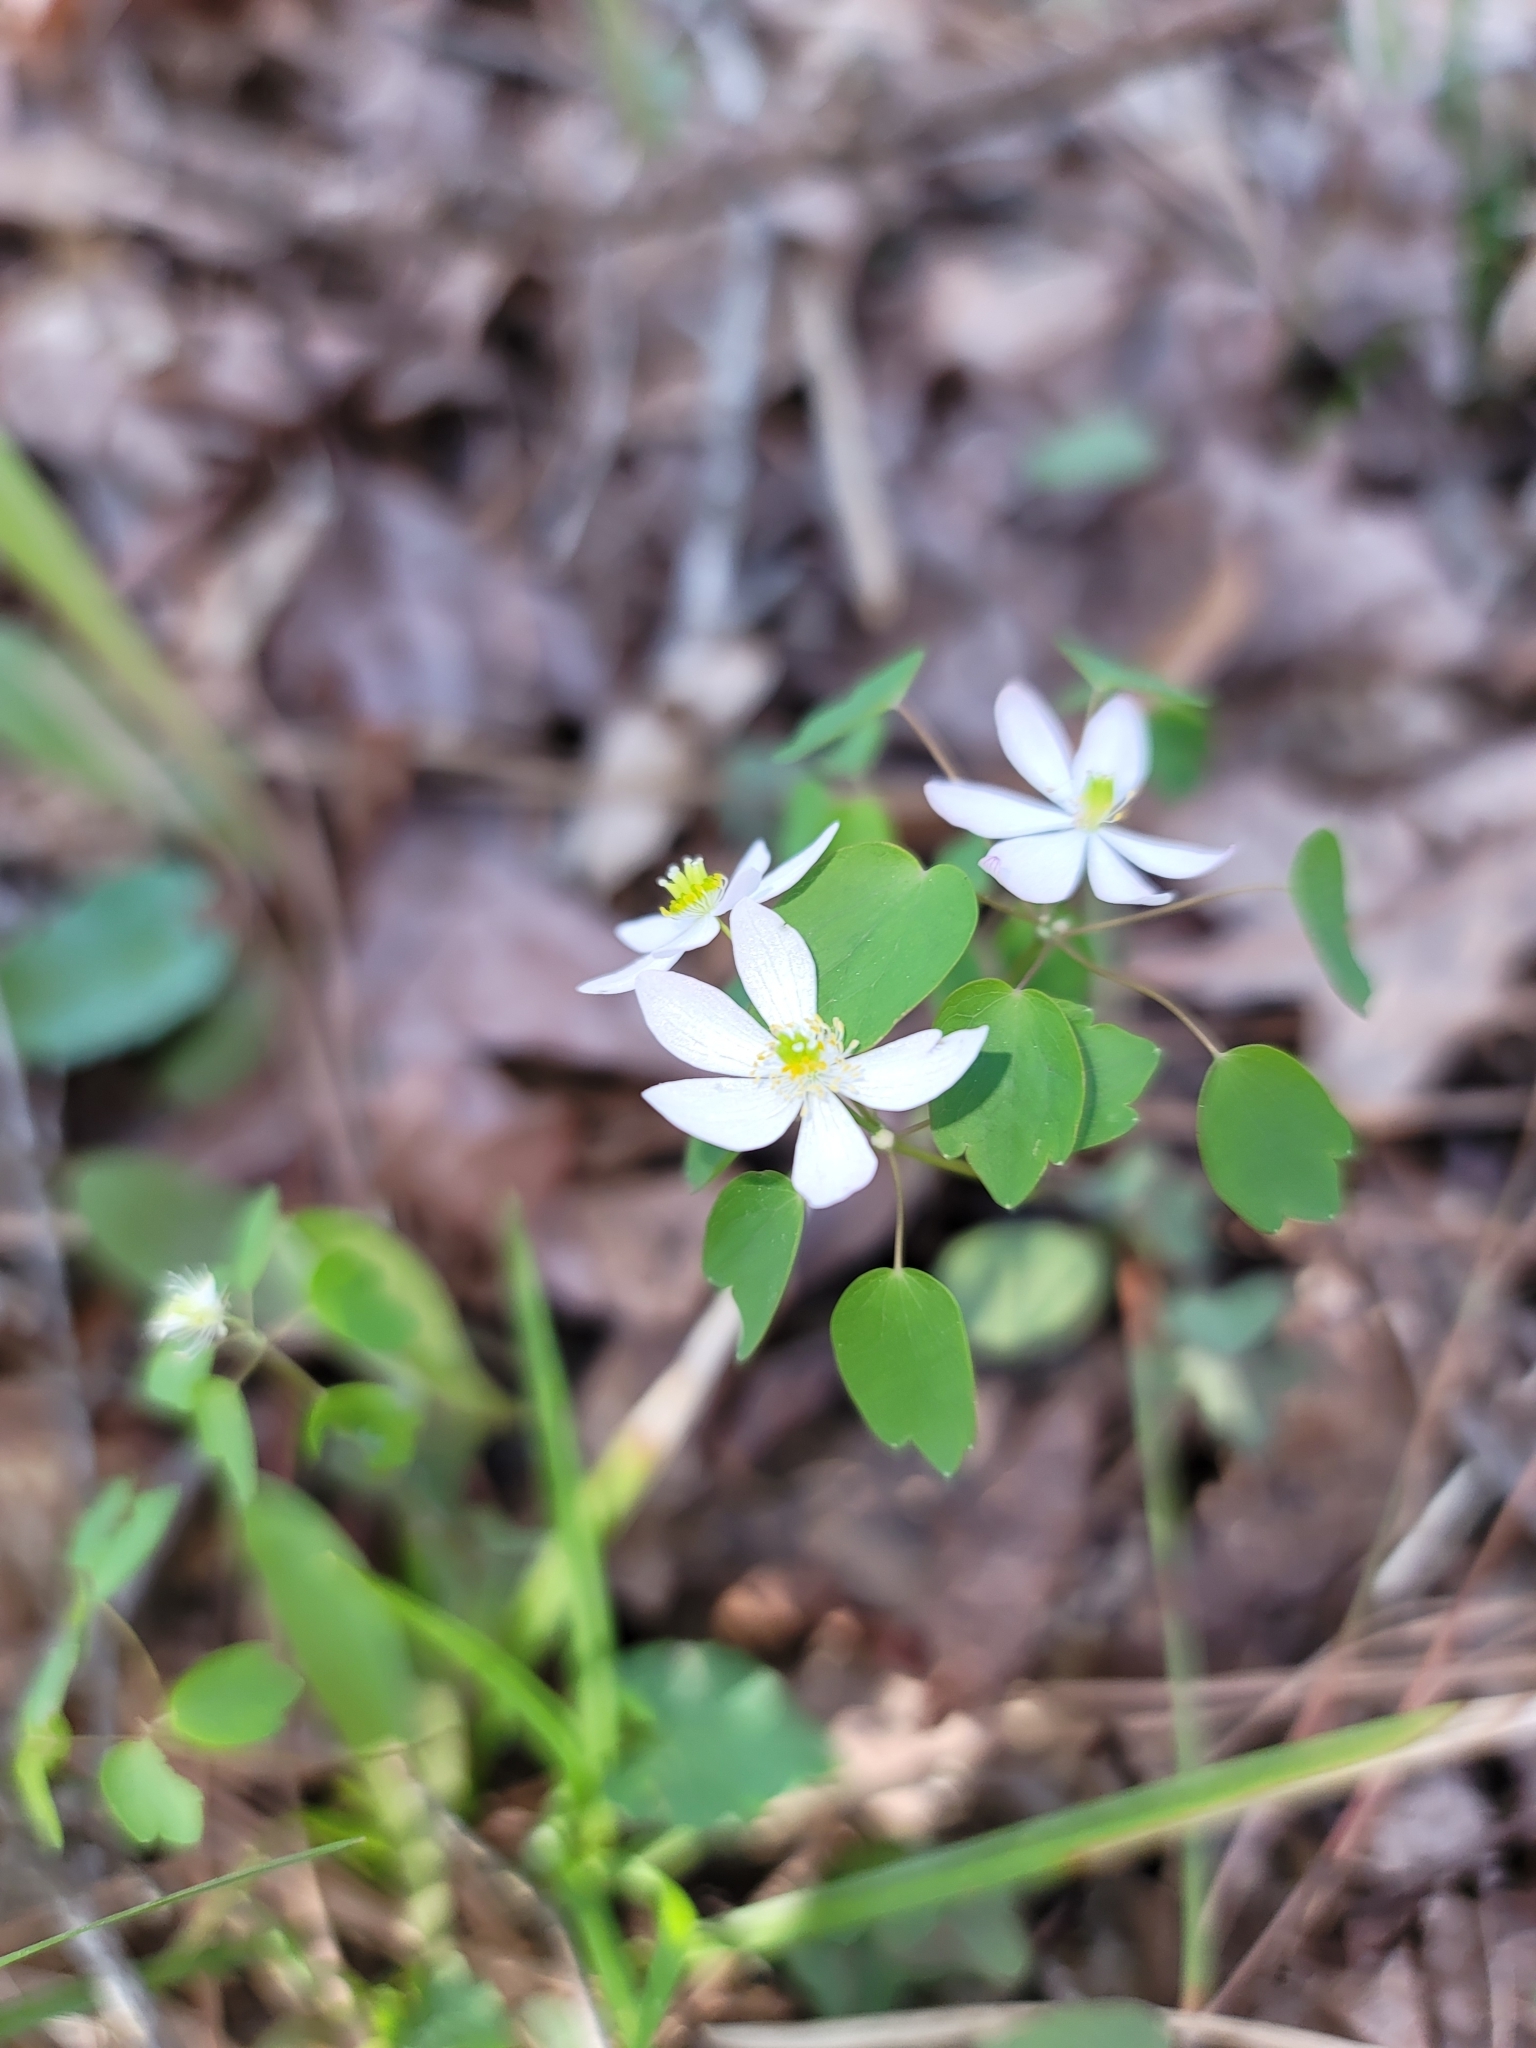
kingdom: Plantae
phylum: Tracheophyta
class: Magnoliopsida
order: Ranunculales
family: Ranunculaceae
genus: Thalictrum
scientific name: Thalictrum thalictroides
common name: Rue-anemone
